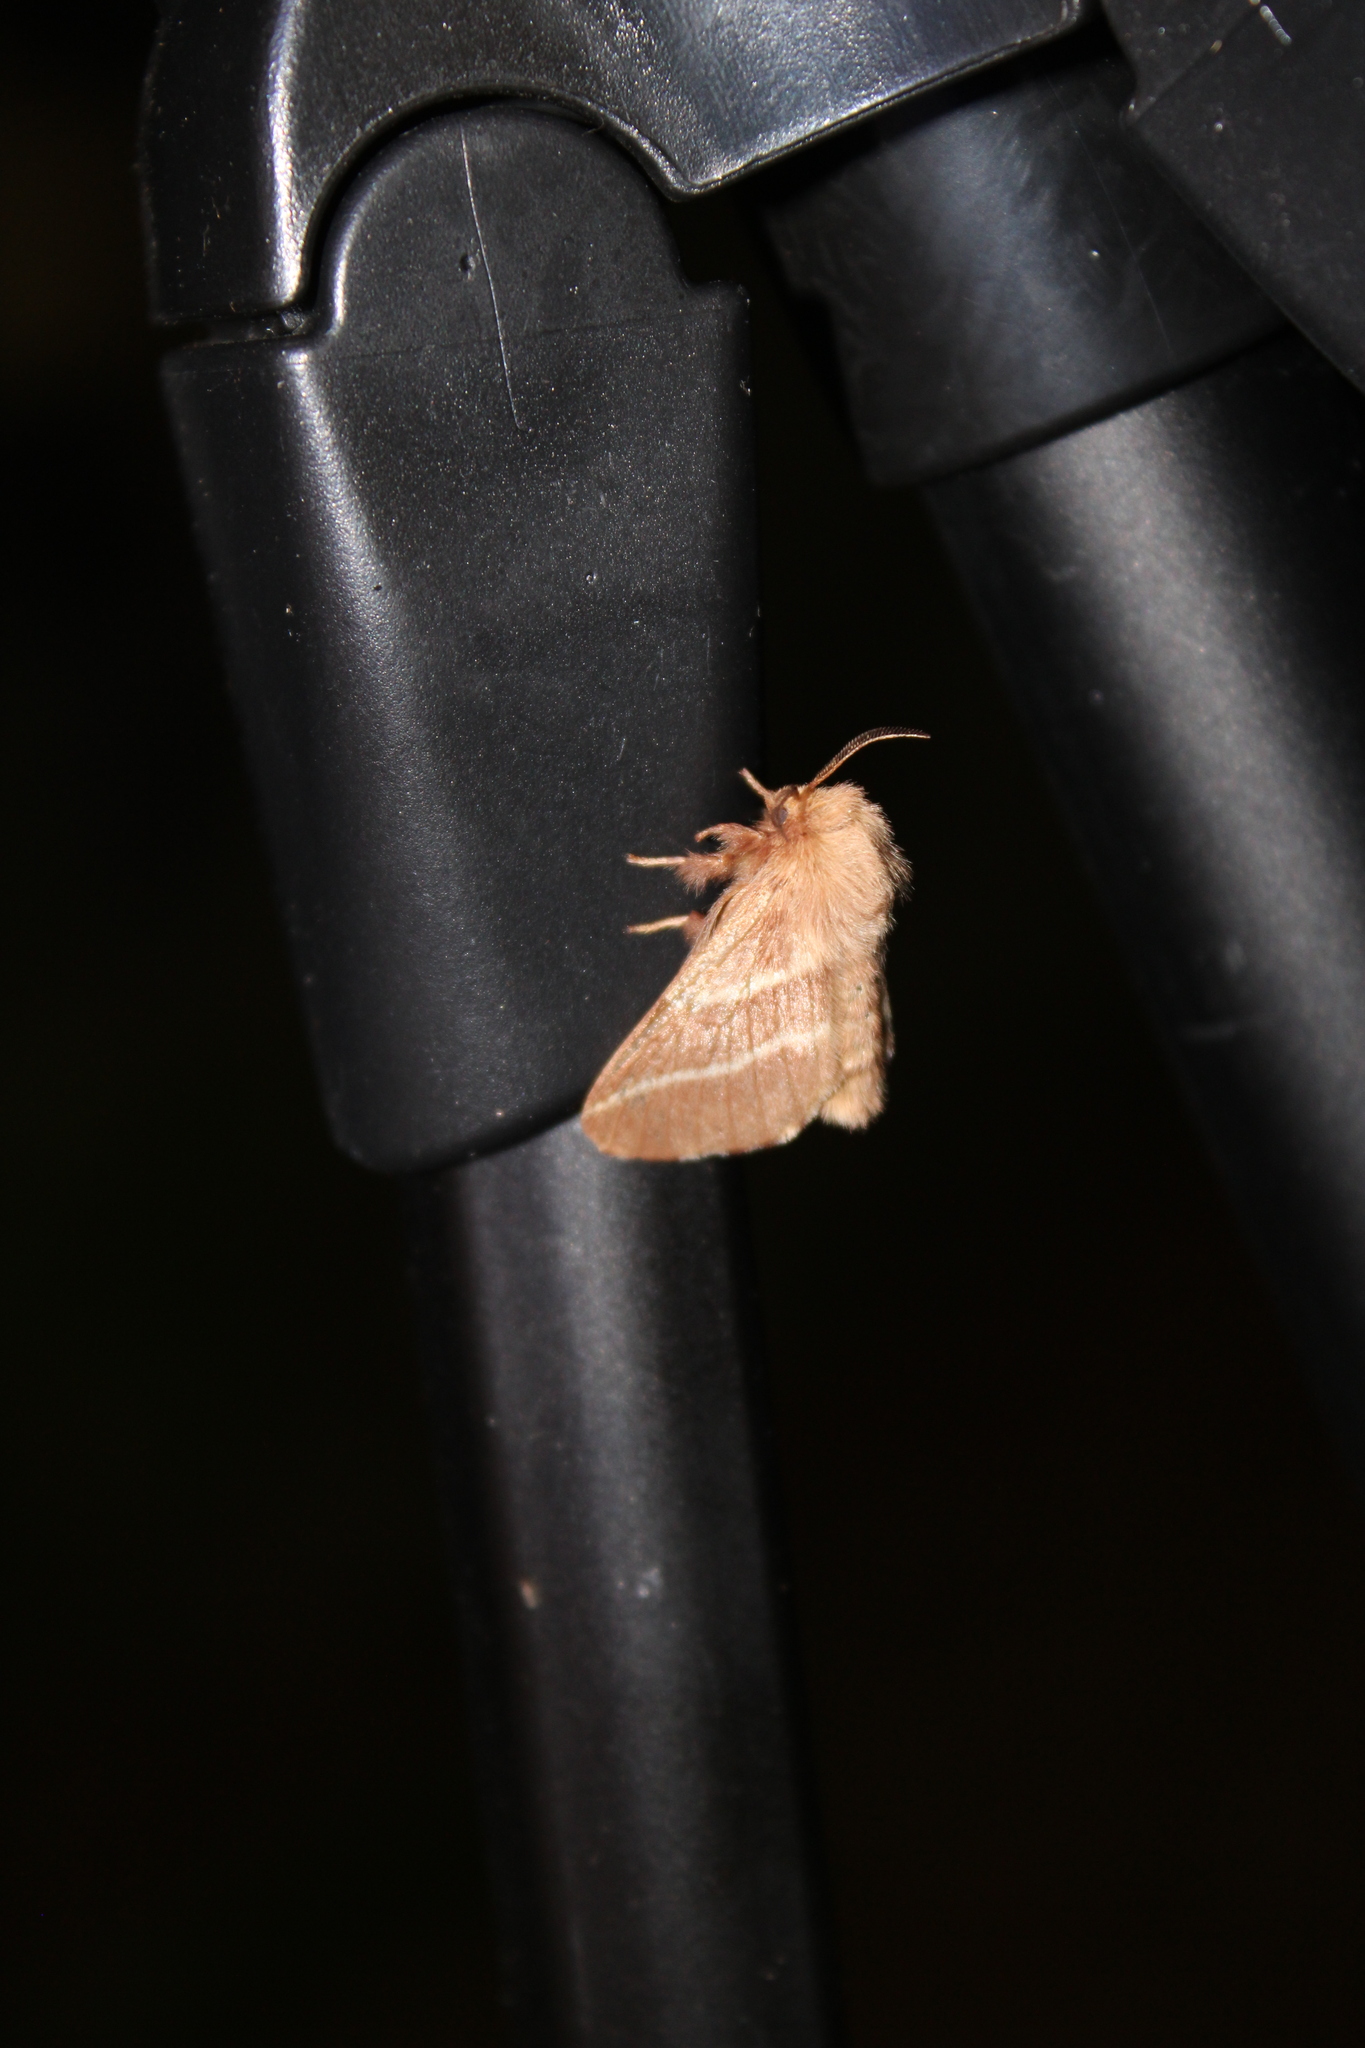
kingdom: Animalia
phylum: Arthropoda
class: Insecta
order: Lepidoptera
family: Lasiocampidae
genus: Malacosoma
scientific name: Malacosoma americana
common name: Eastern tent caterpillar moth
